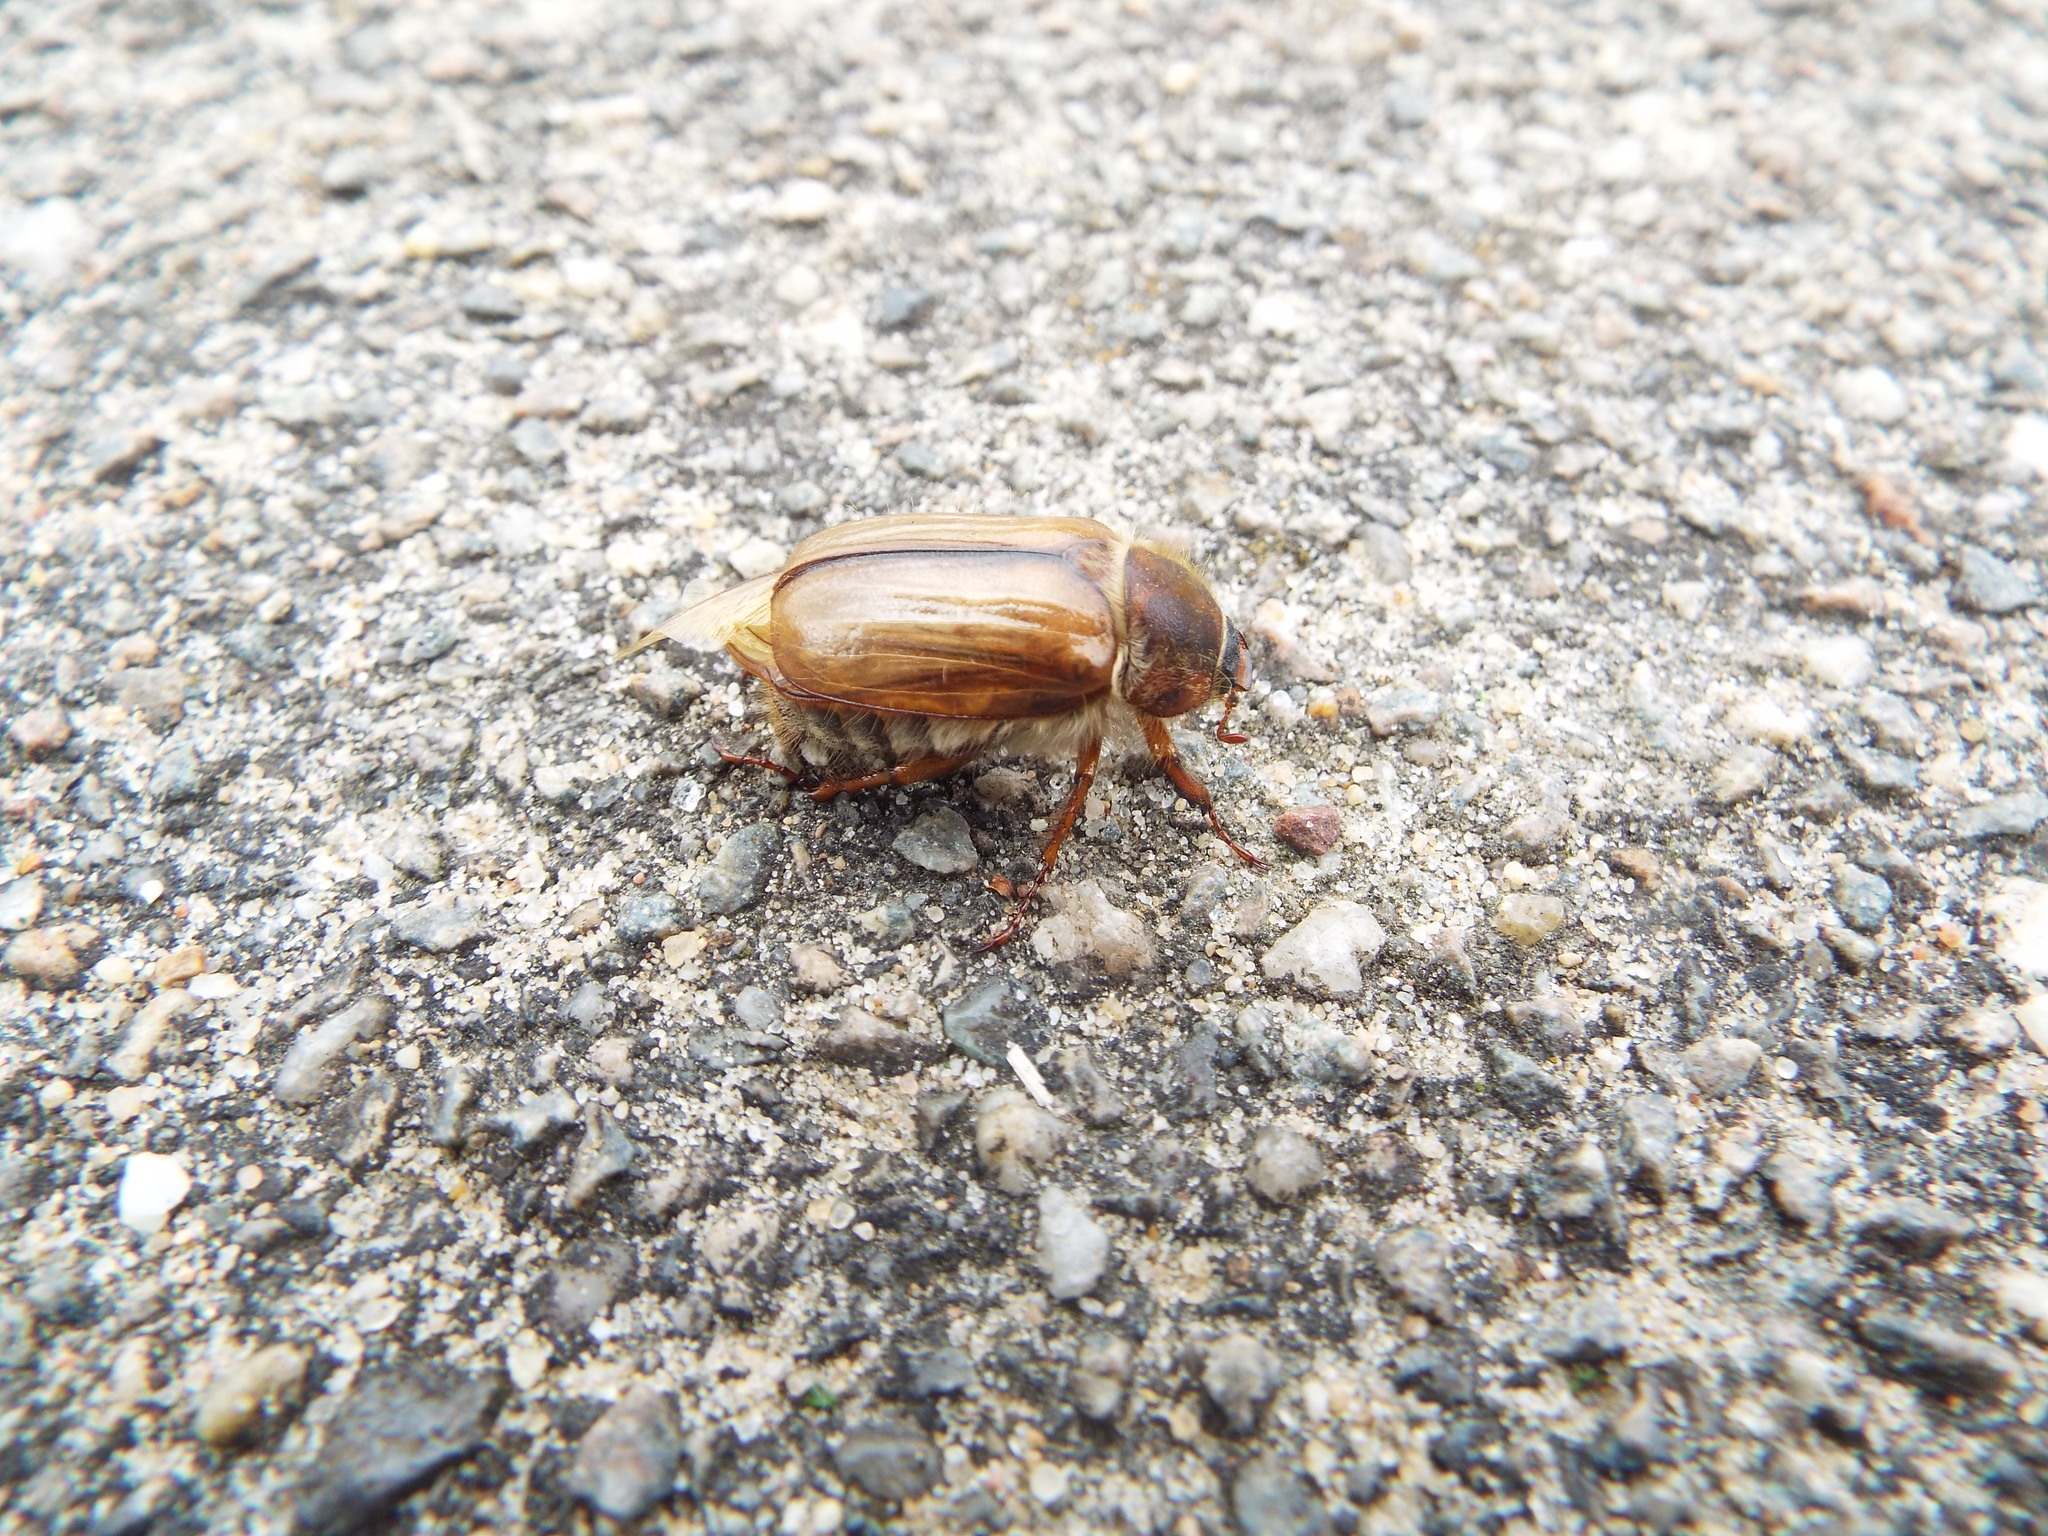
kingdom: Animalia
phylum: Arthropoda
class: Insecta
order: Coleoptera
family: Scarabaeidae
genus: Amphimallon
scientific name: Amphimallon solstitiale
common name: Summer chafer
